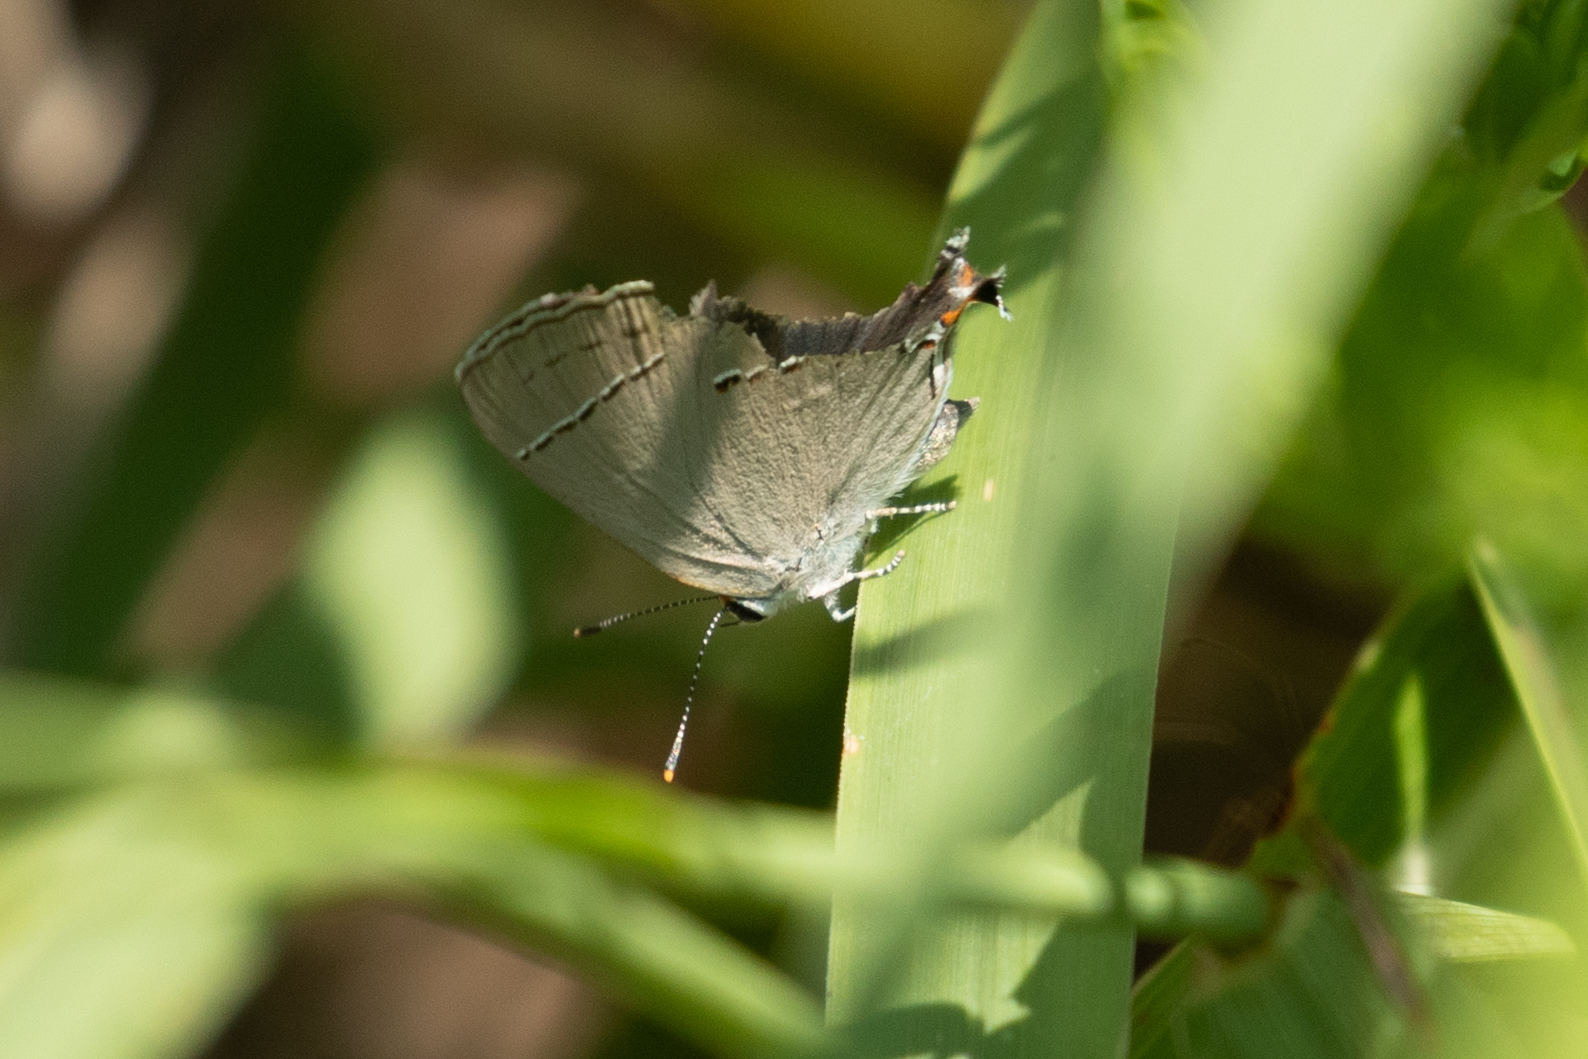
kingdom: Animalia
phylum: Arthropoda
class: Insecta
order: Lepidoptera
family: Lycaenidae
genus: Strymon
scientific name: Strymon melinus
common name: Gray hairstreak
